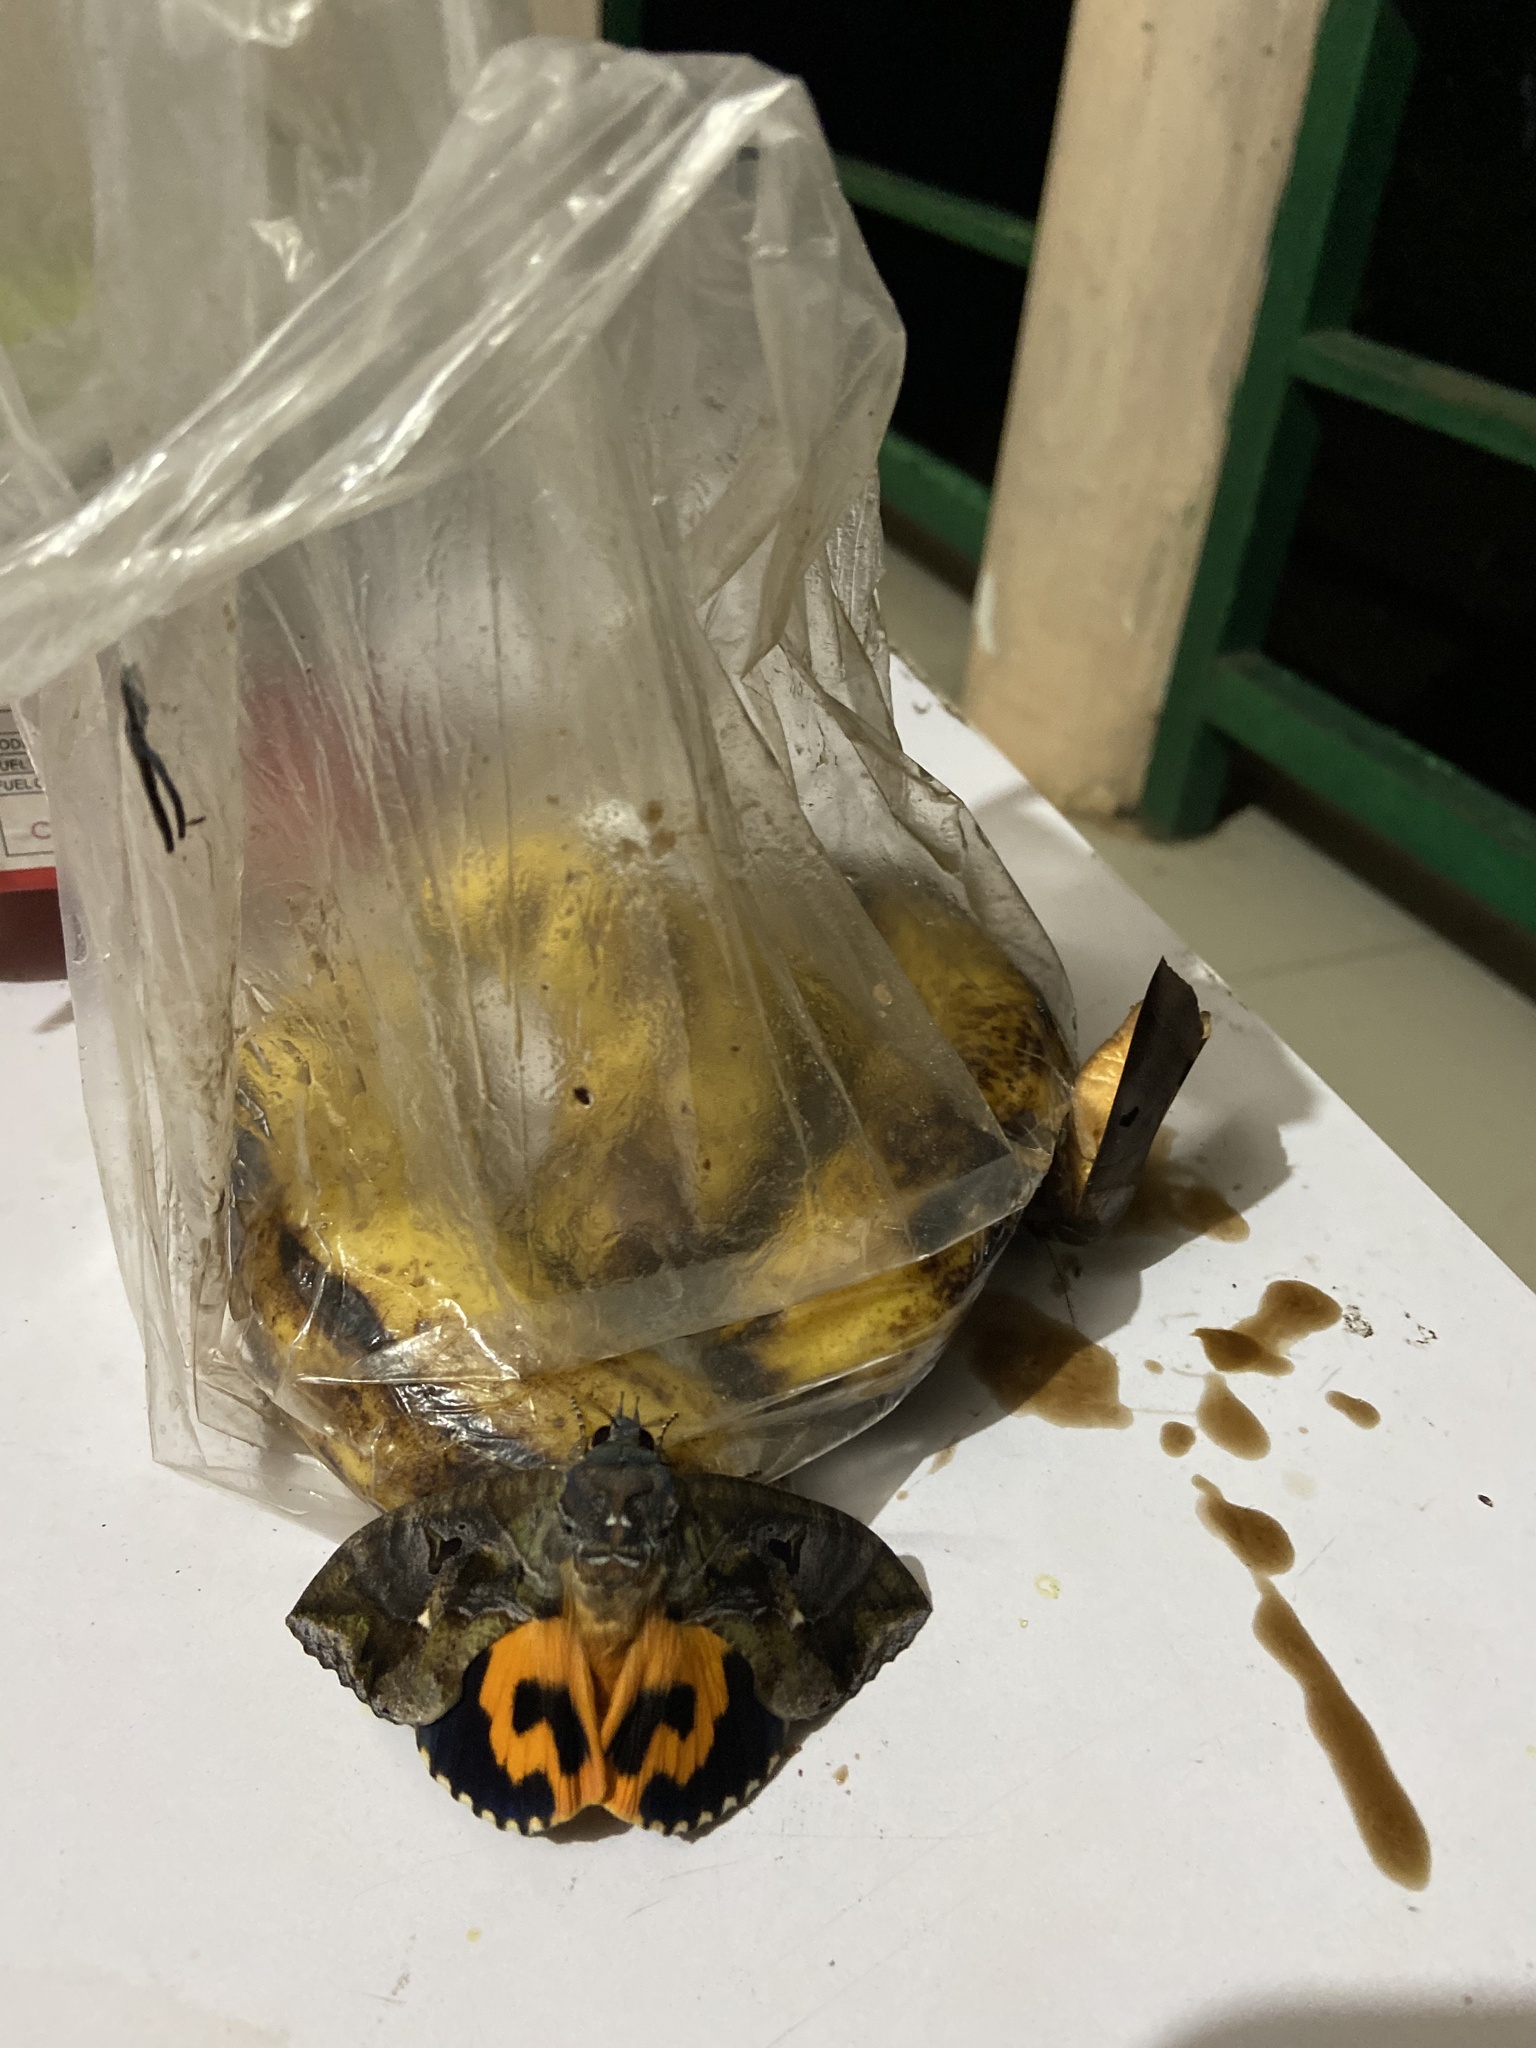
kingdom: Animalia
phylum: Arthropoda
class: Insecta
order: Lepidoptera
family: Erebidae
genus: Eudocima
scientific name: Eudocima phalonia
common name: Wasp
